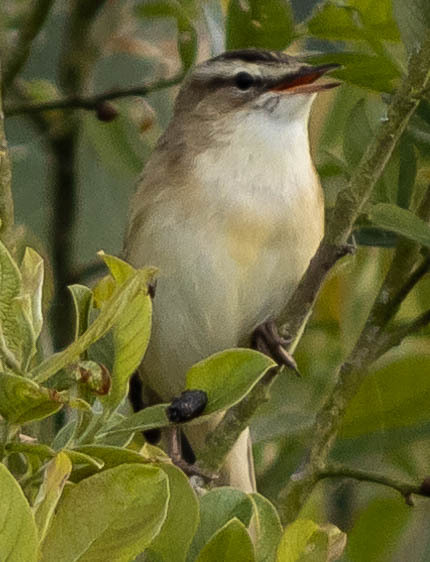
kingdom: Animalia
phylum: Chordata
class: Aves
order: Passeriformes
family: Acrocephalidae
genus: Acrocephalus
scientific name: Acrocephalus schoenobaenus
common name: Sedge warbler
